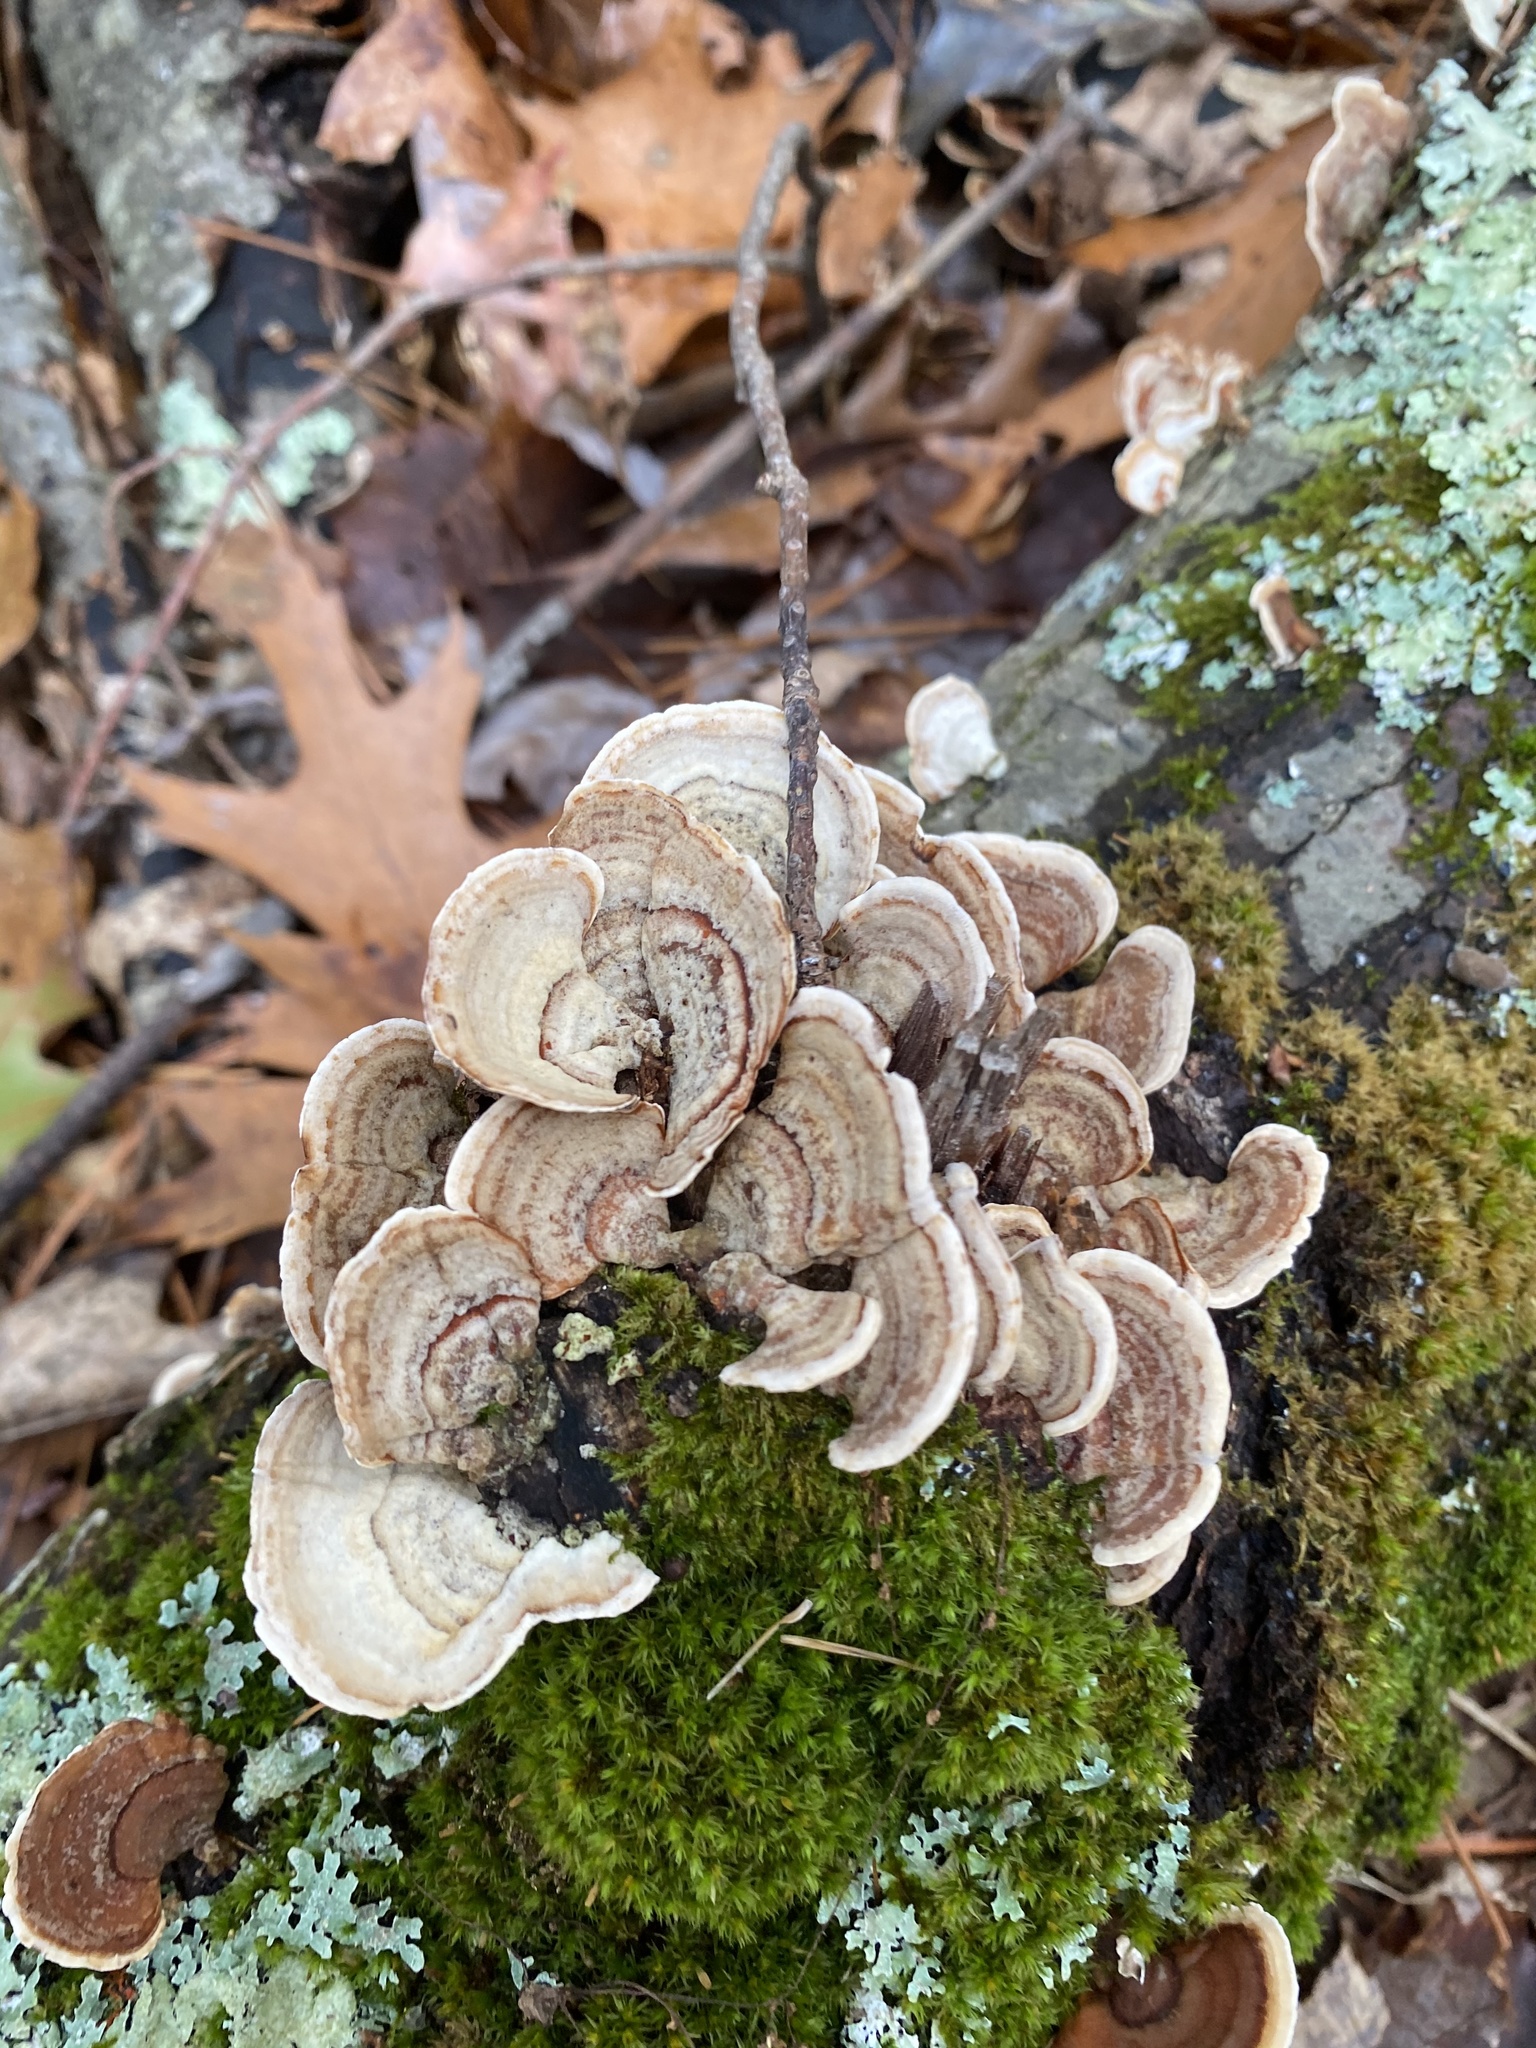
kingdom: Fungi
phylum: Basidiomycota
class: Agaricomycetes
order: Russulales
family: Stereaceae
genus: Stereum
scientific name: Stereum ostrea
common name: False turkeytail
